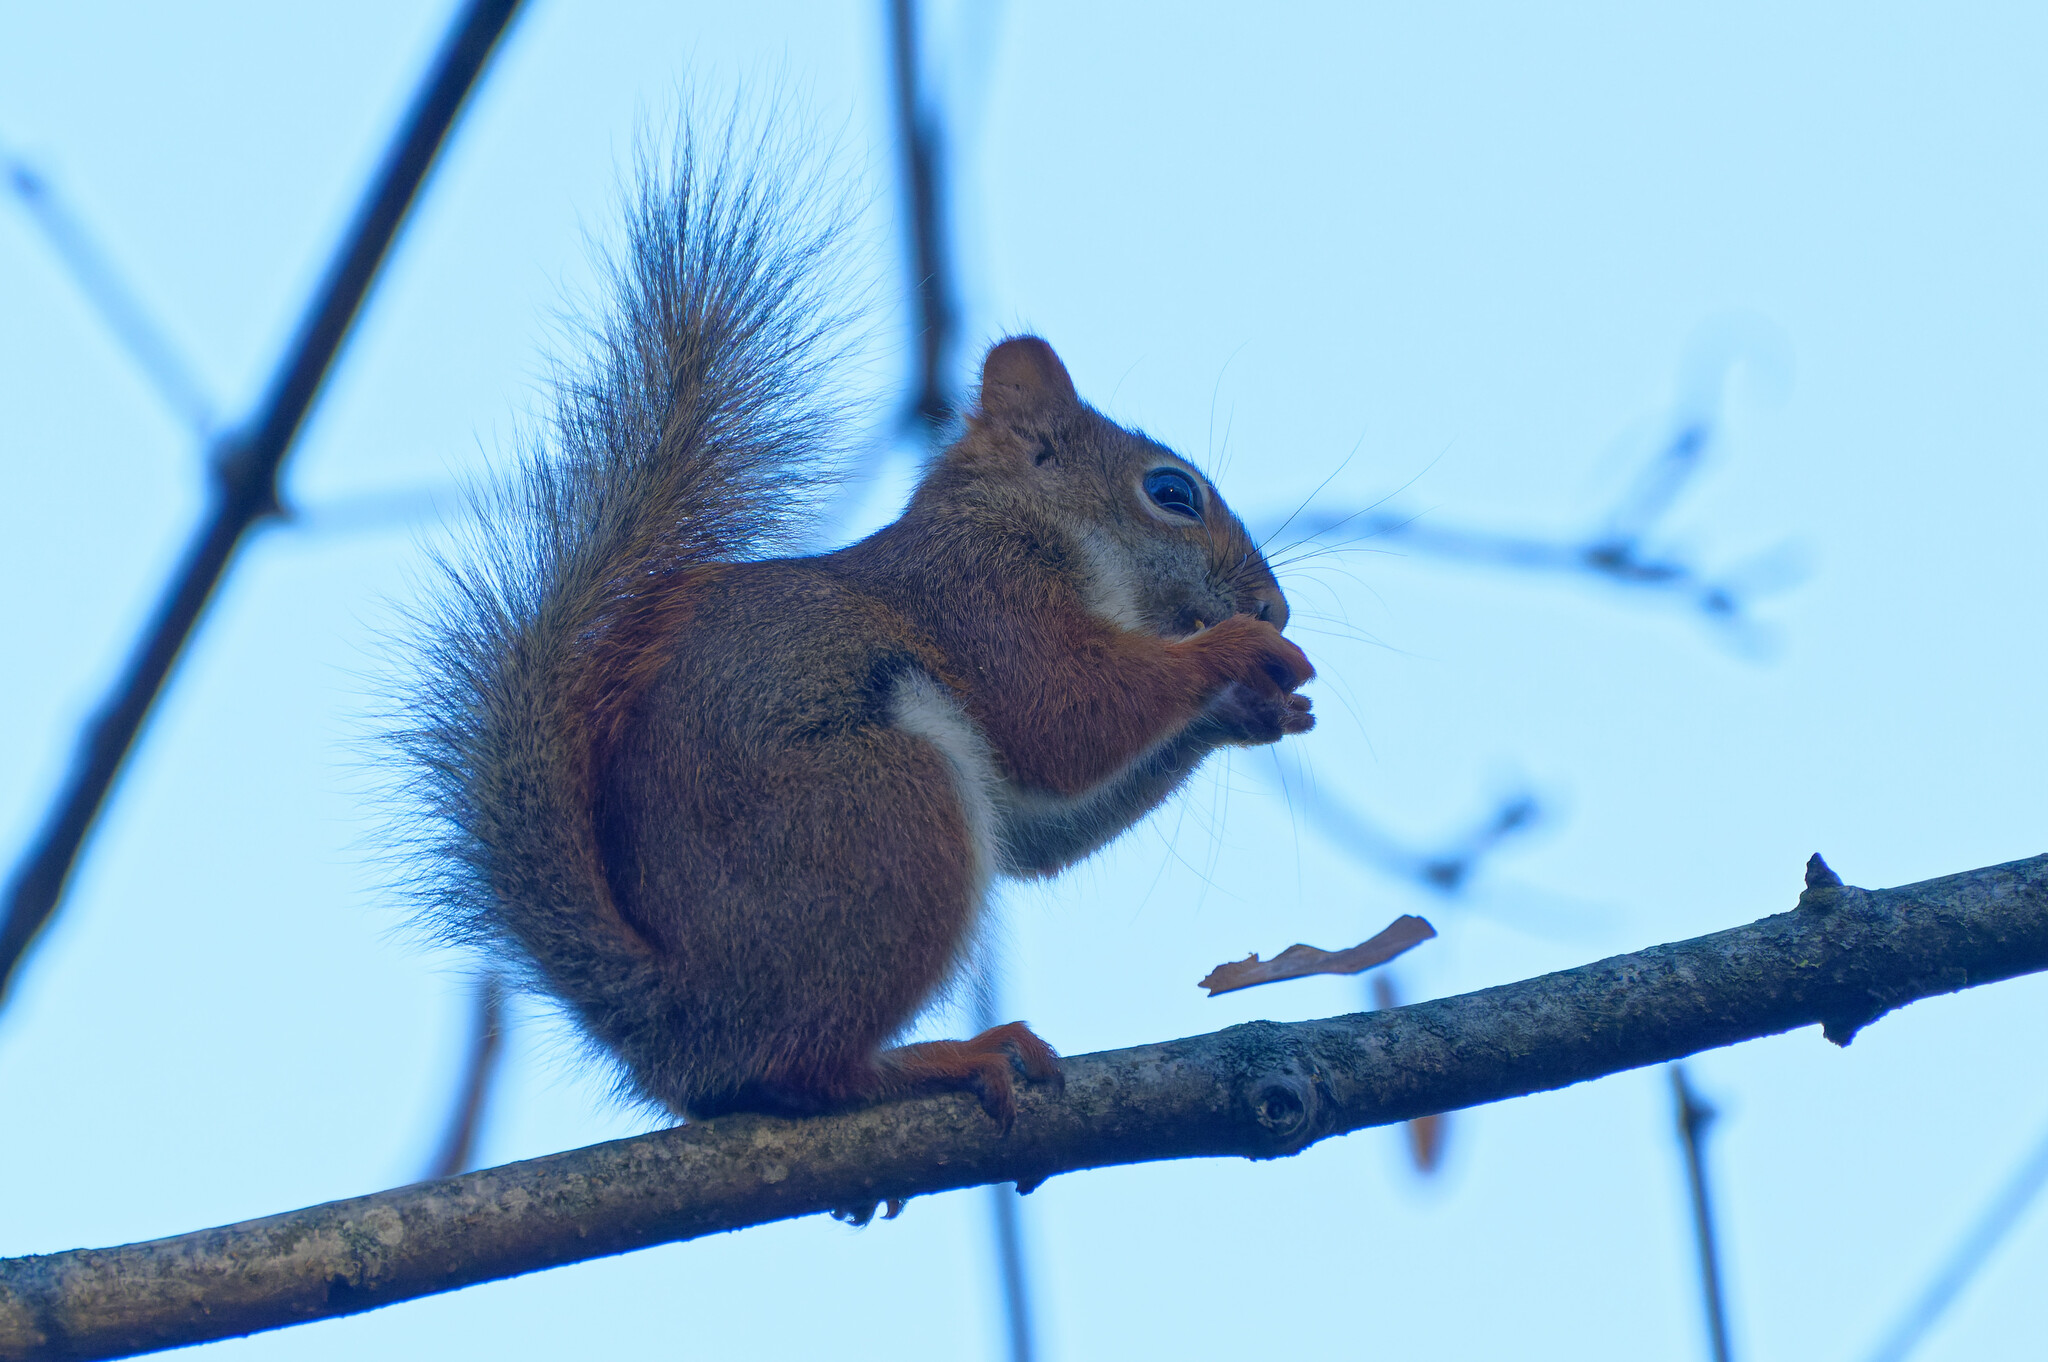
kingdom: Animalia
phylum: Chordata
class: Mammalia
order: Rodentia
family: Sciuridae
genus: Tamiasciurus
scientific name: Tamiasciurus hudsonicus
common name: Red squirrel
